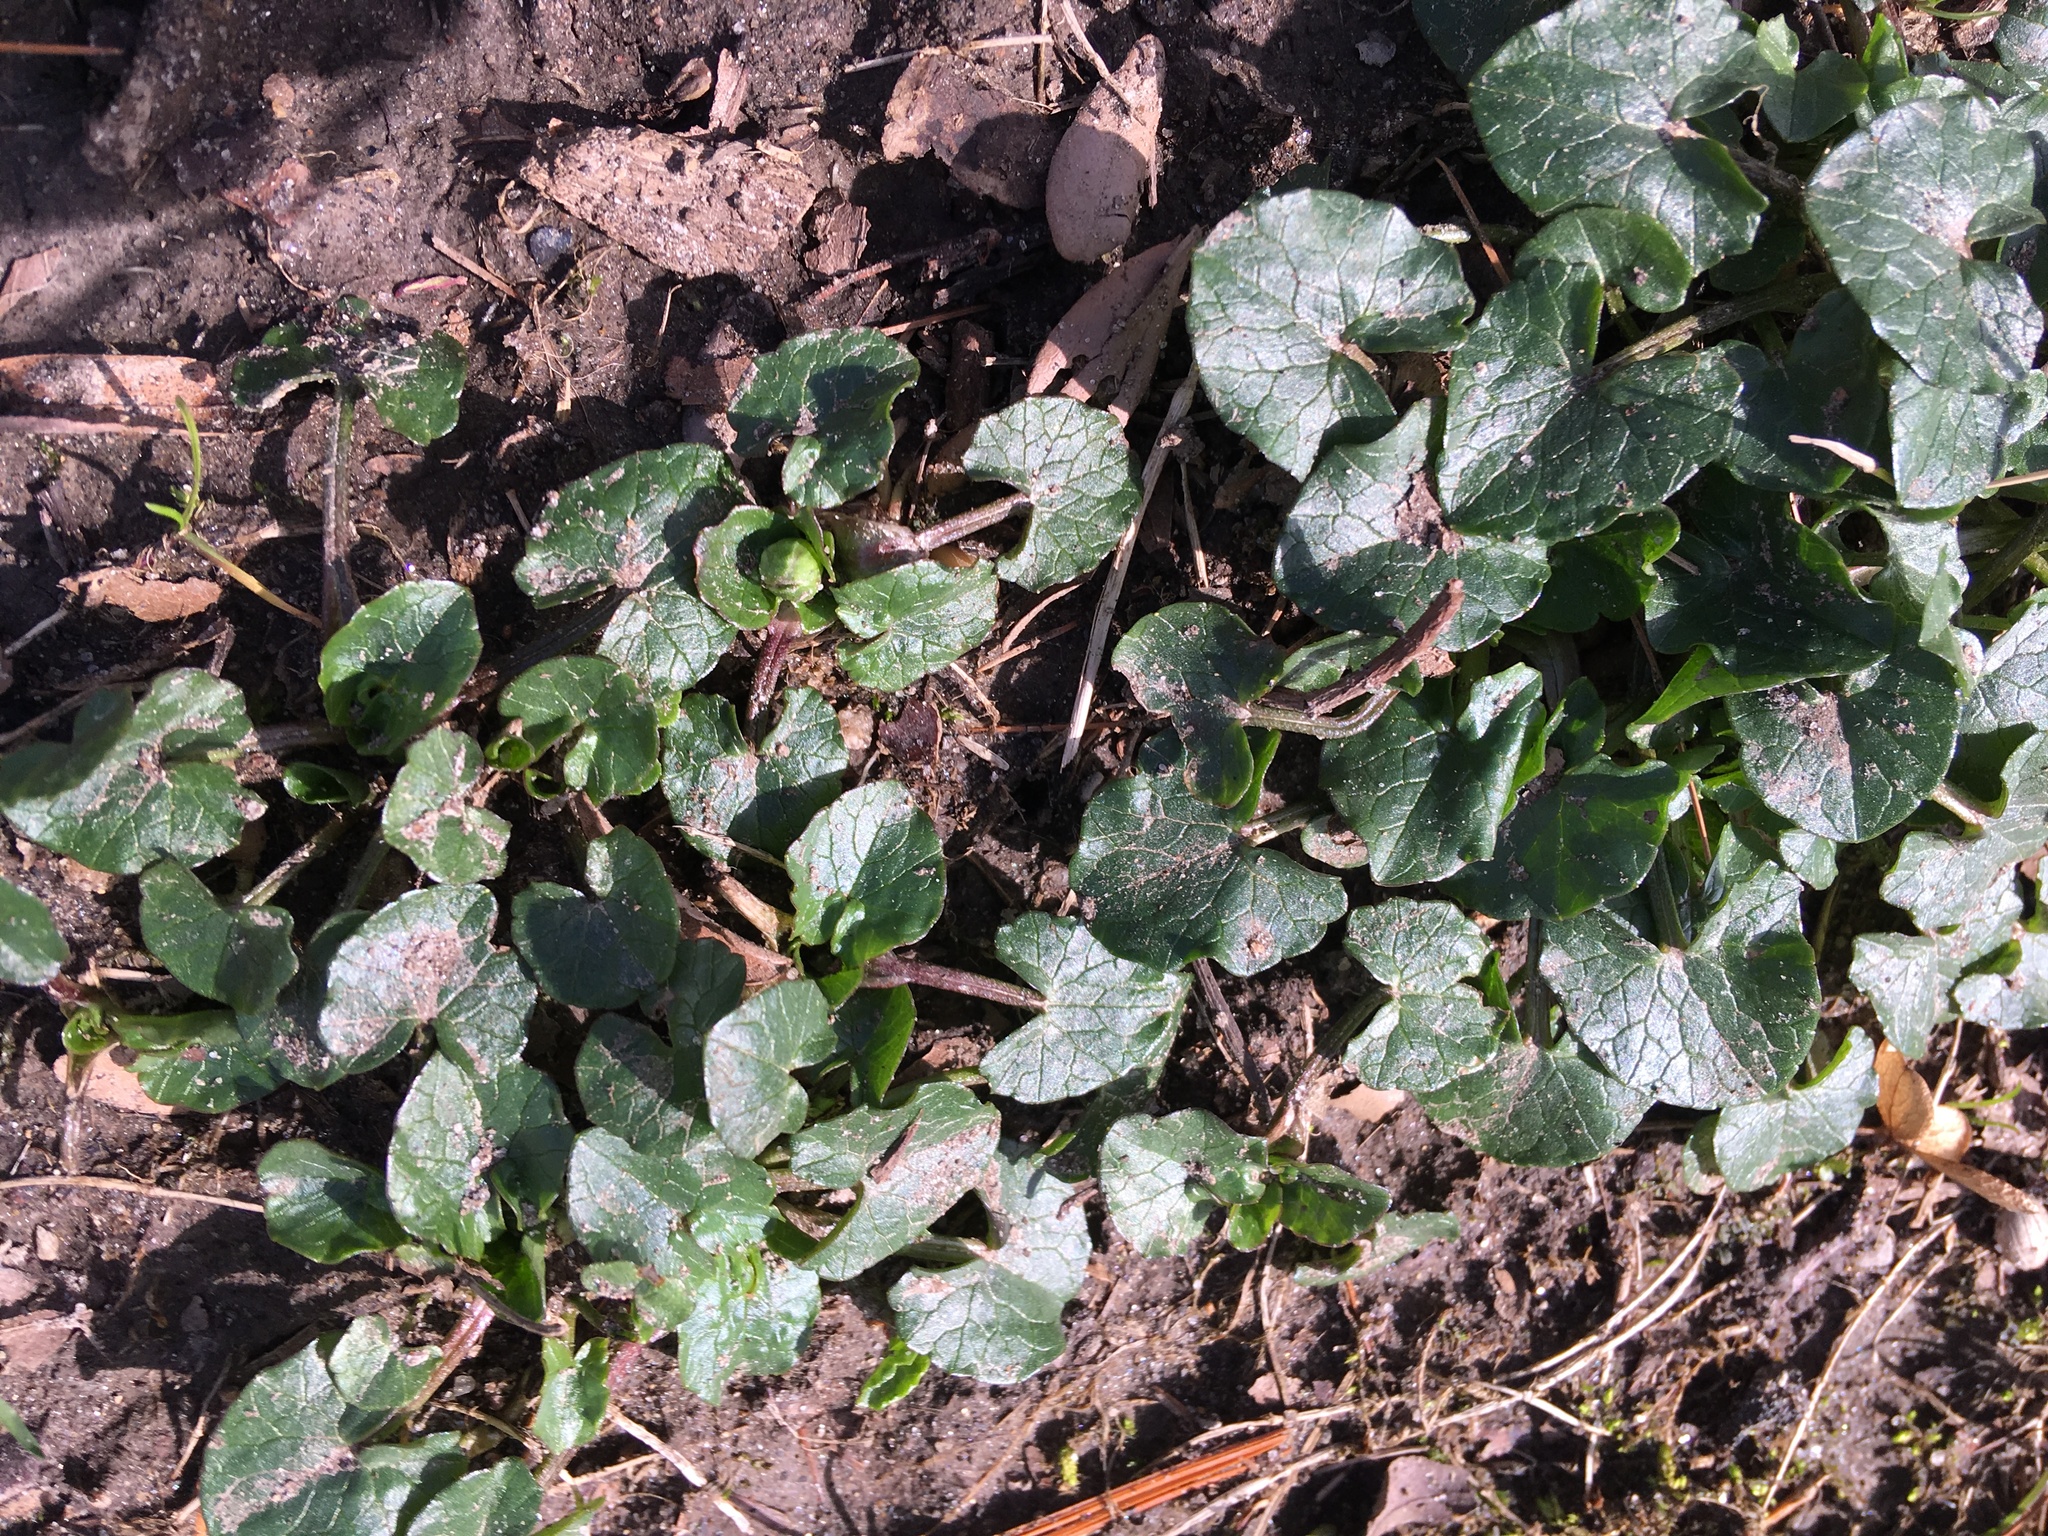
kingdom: Plantae
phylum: Tracheophyta
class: Magnoliopsida
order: Ranunculales
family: Ranunculaceae
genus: Ficaria
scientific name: Ficaria verna
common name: Lesser celandine
